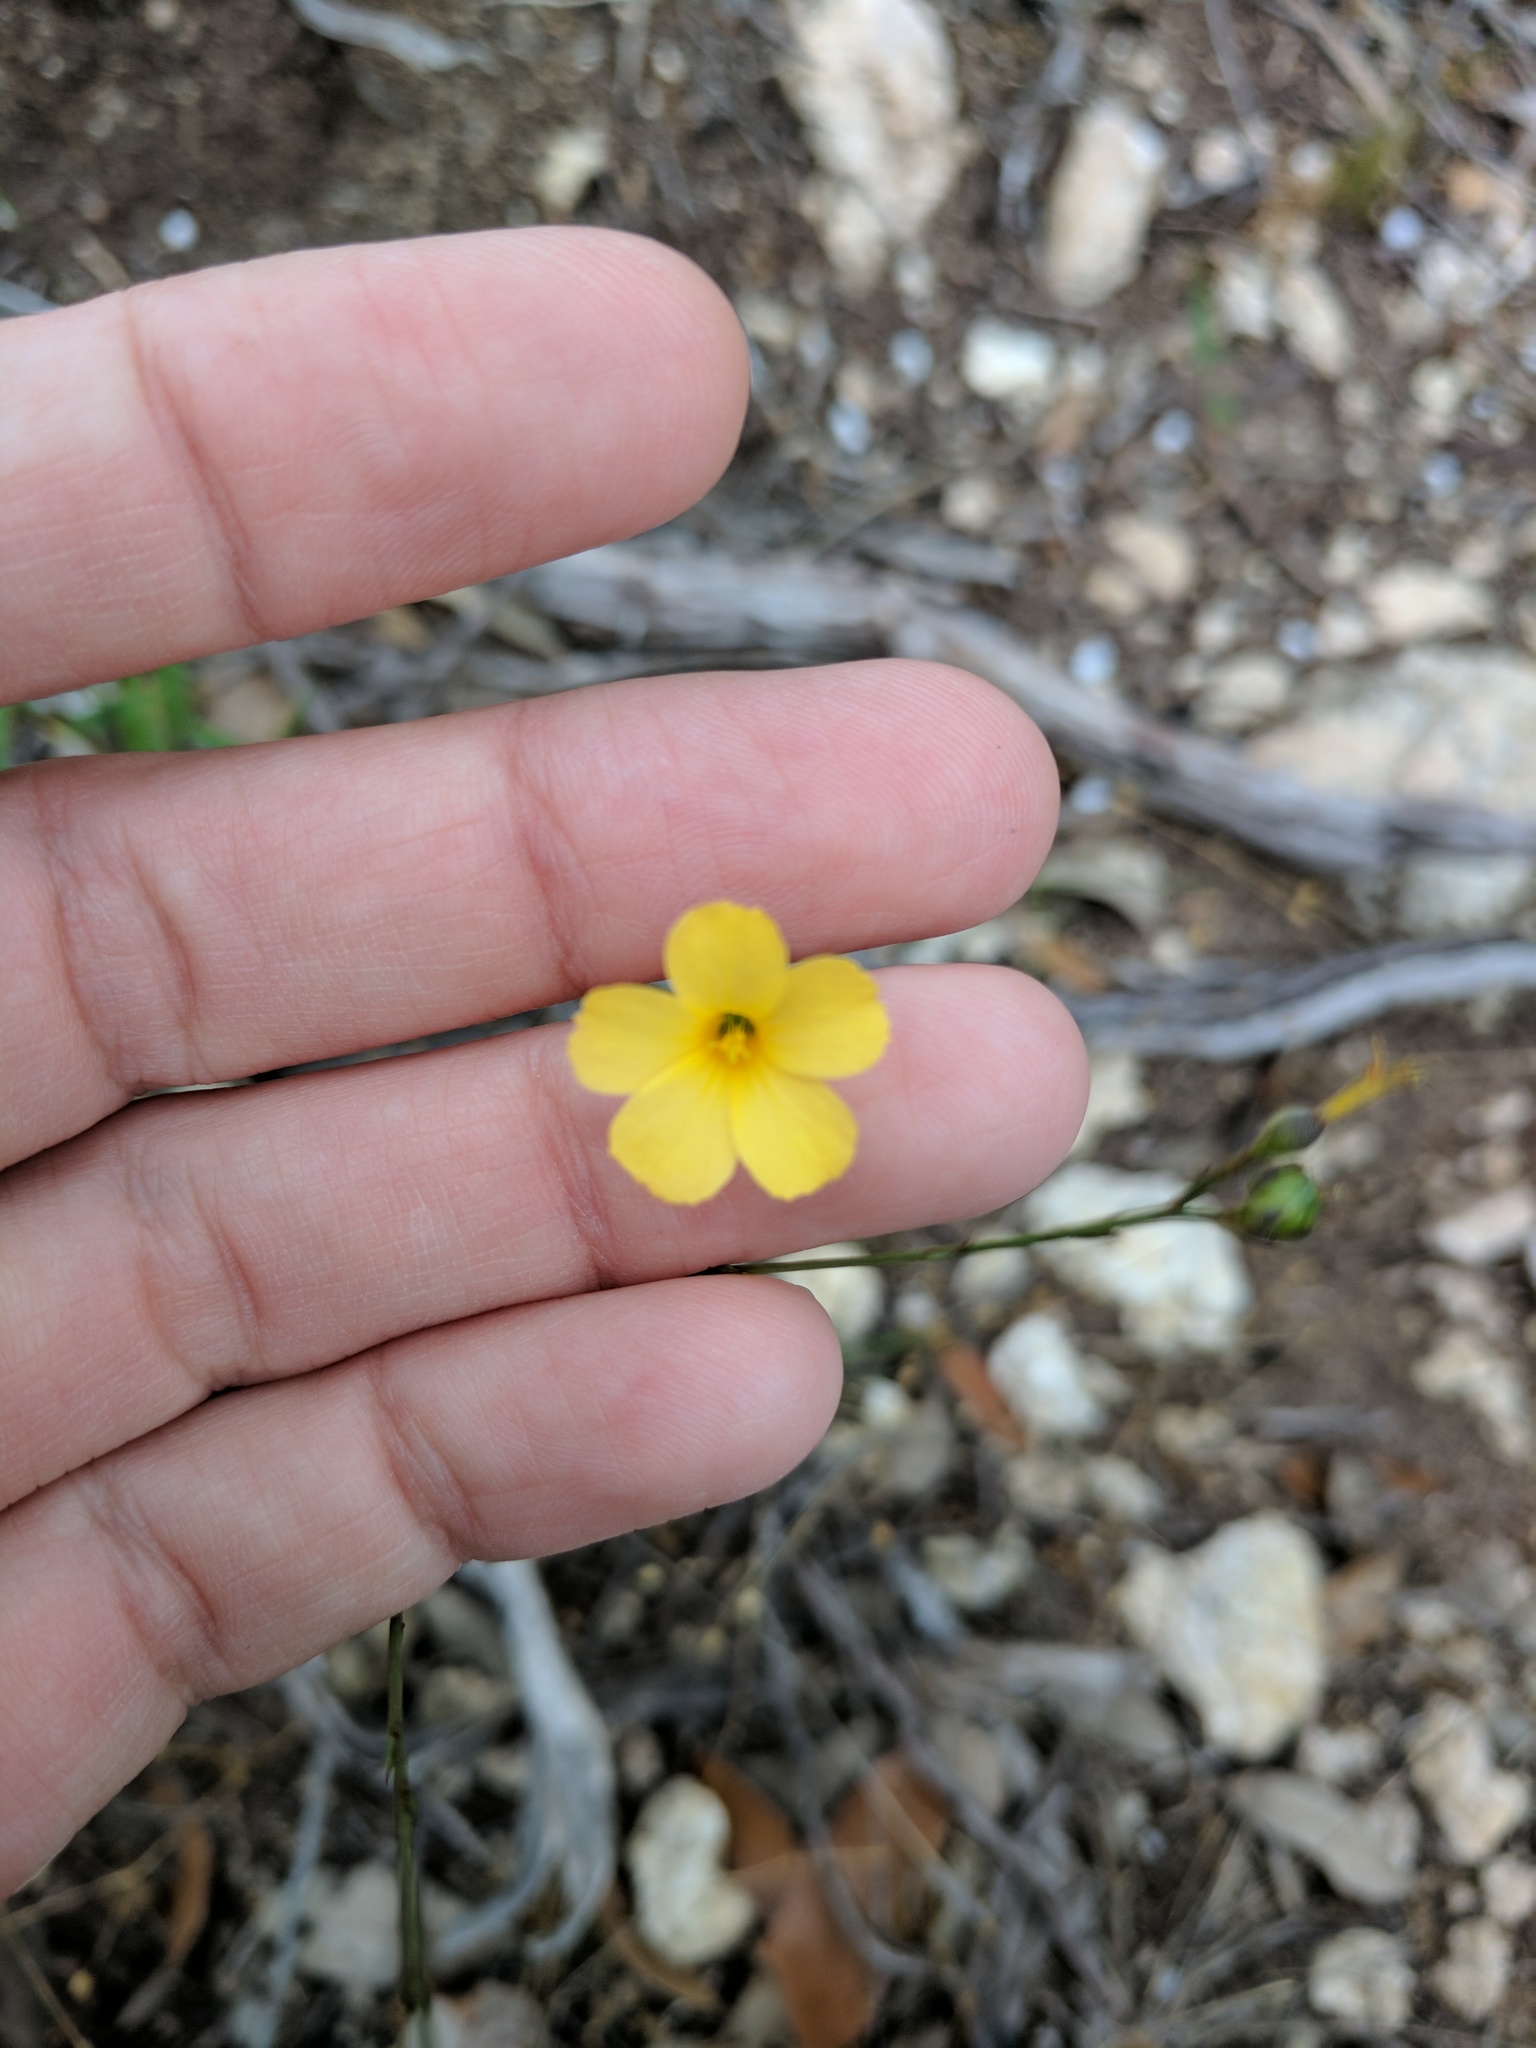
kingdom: Plantae
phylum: Tracheophyta
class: Magnoliopsida
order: Malpighiales
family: Linaceae
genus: Linum
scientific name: Linum rupestre
